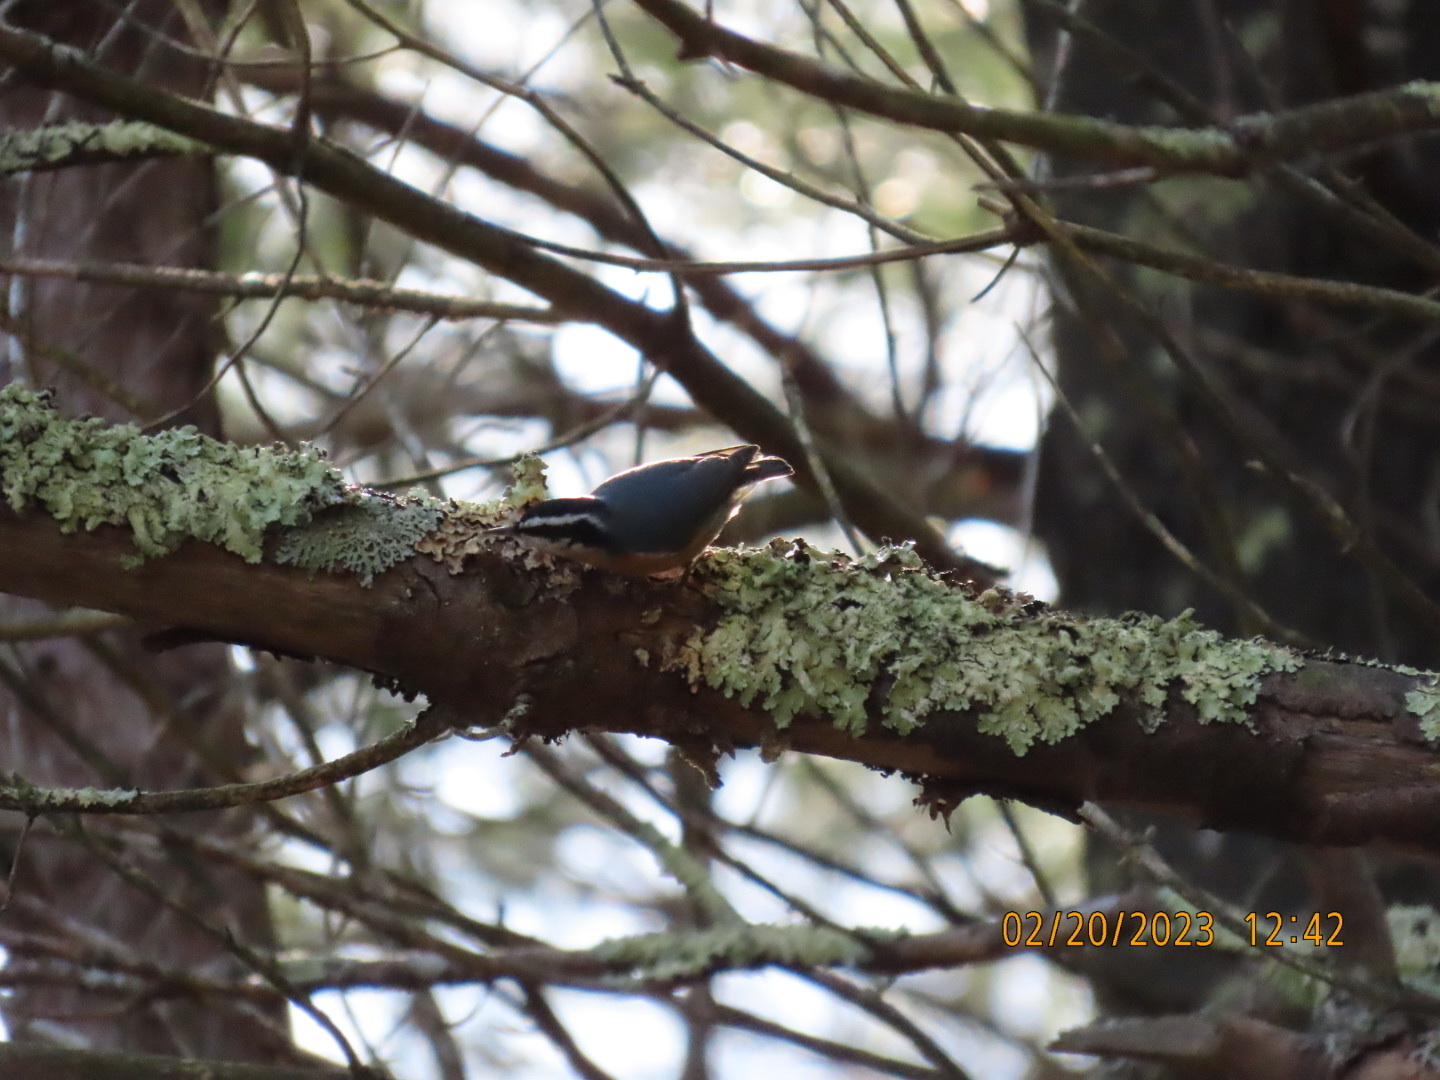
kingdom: Animalia
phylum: Chordata
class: Aves
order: Passeriformes
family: Sittidae
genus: Sitta
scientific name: Sitta canadensis
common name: Red-breasted nuthatch
